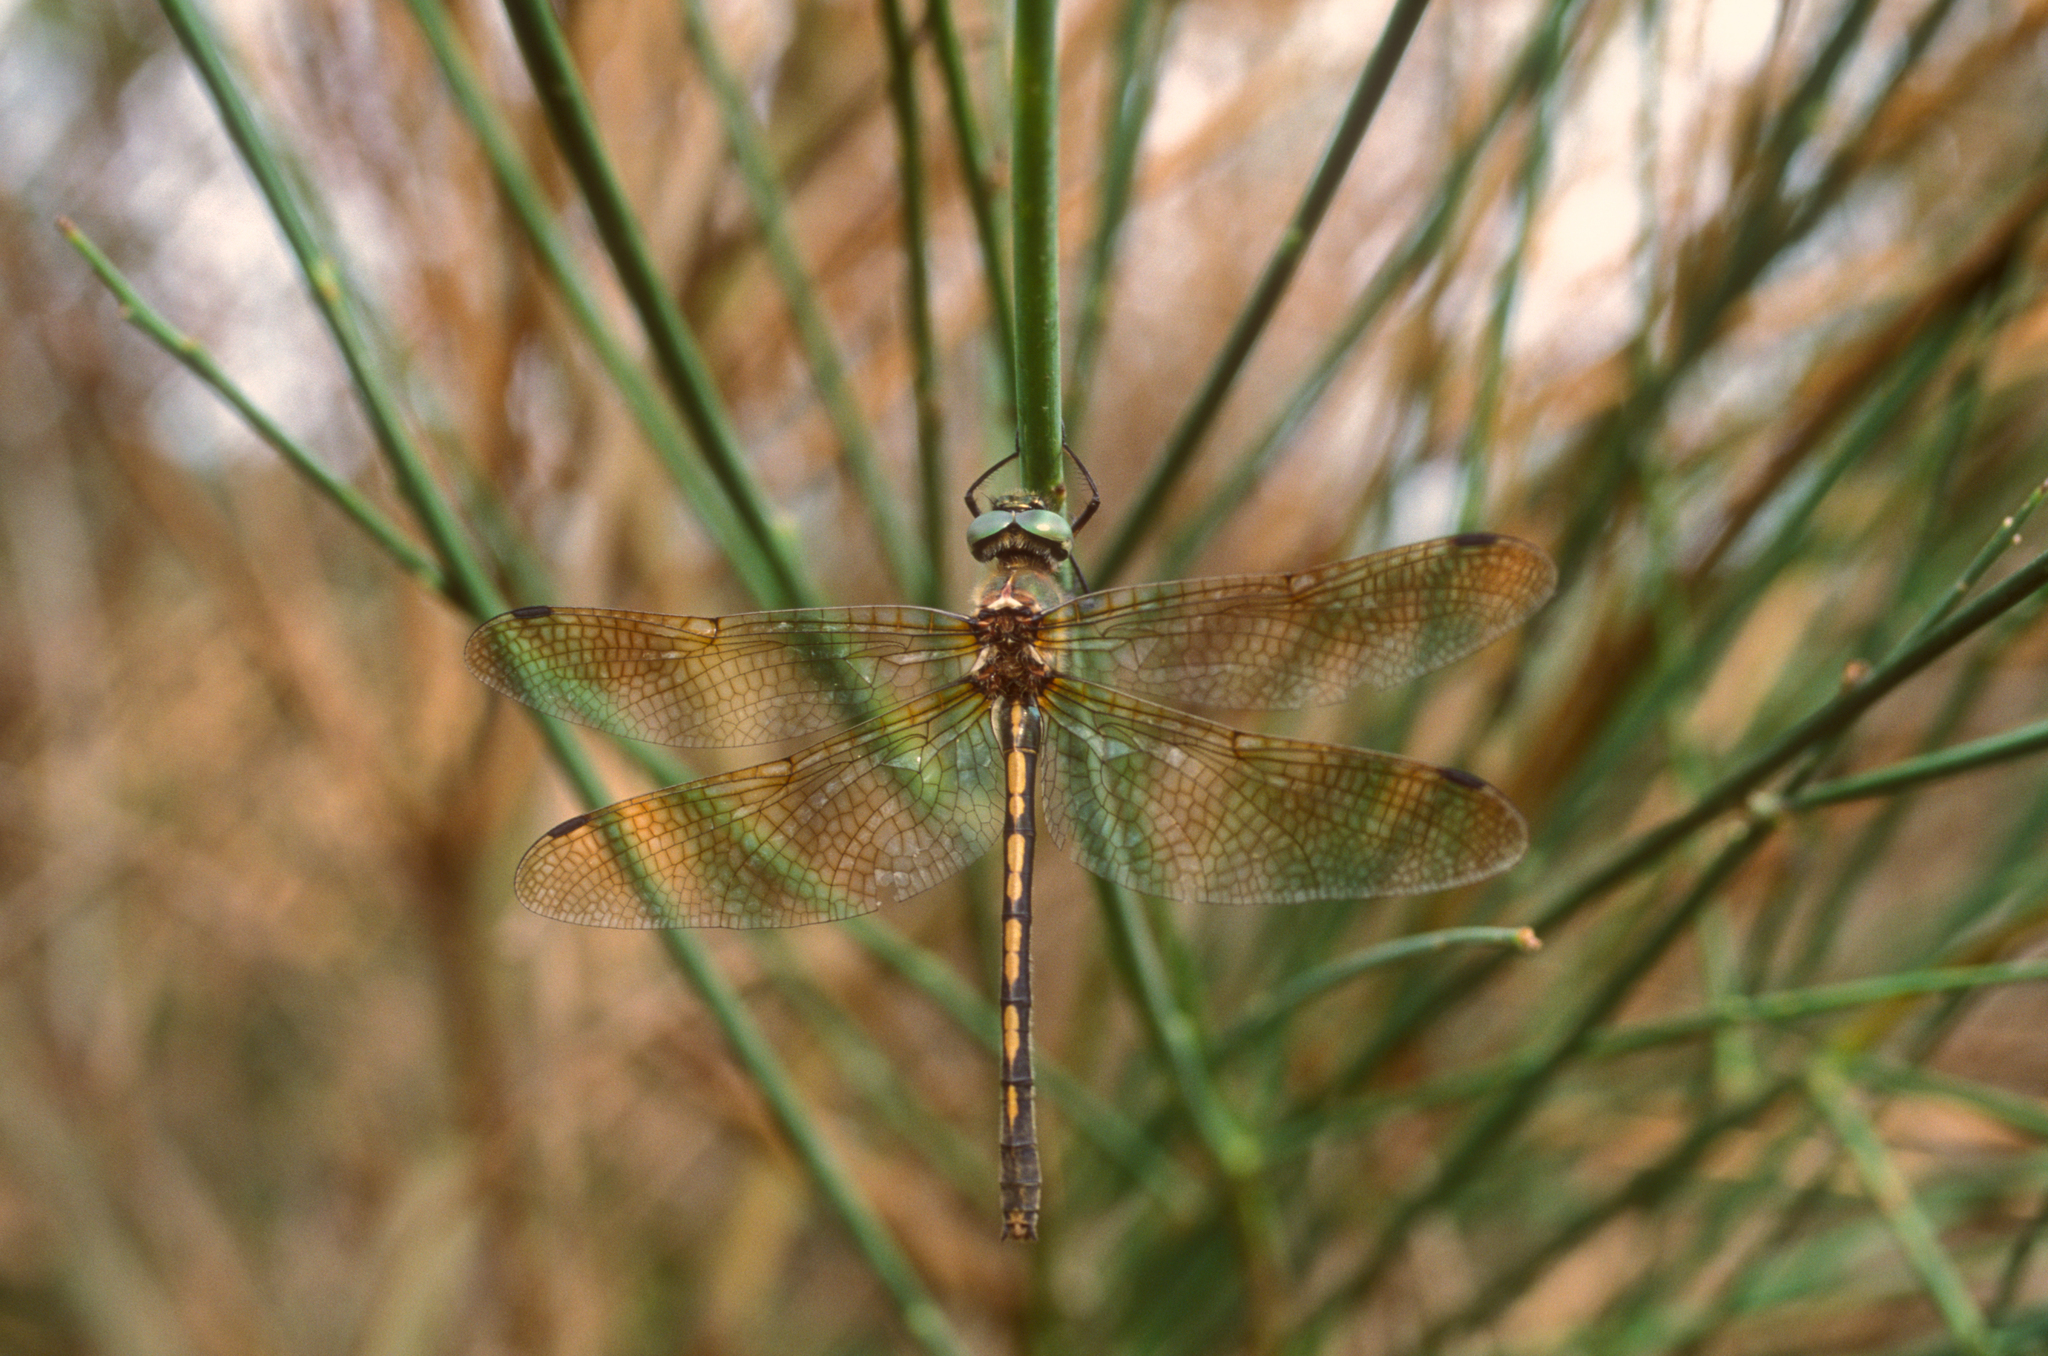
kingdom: Animalia
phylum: Arthropoda
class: Insecta
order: Odonata
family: Corduliidae
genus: Oxygastra
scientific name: Oxygastra curtisii
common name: Orange-spotted emerald
